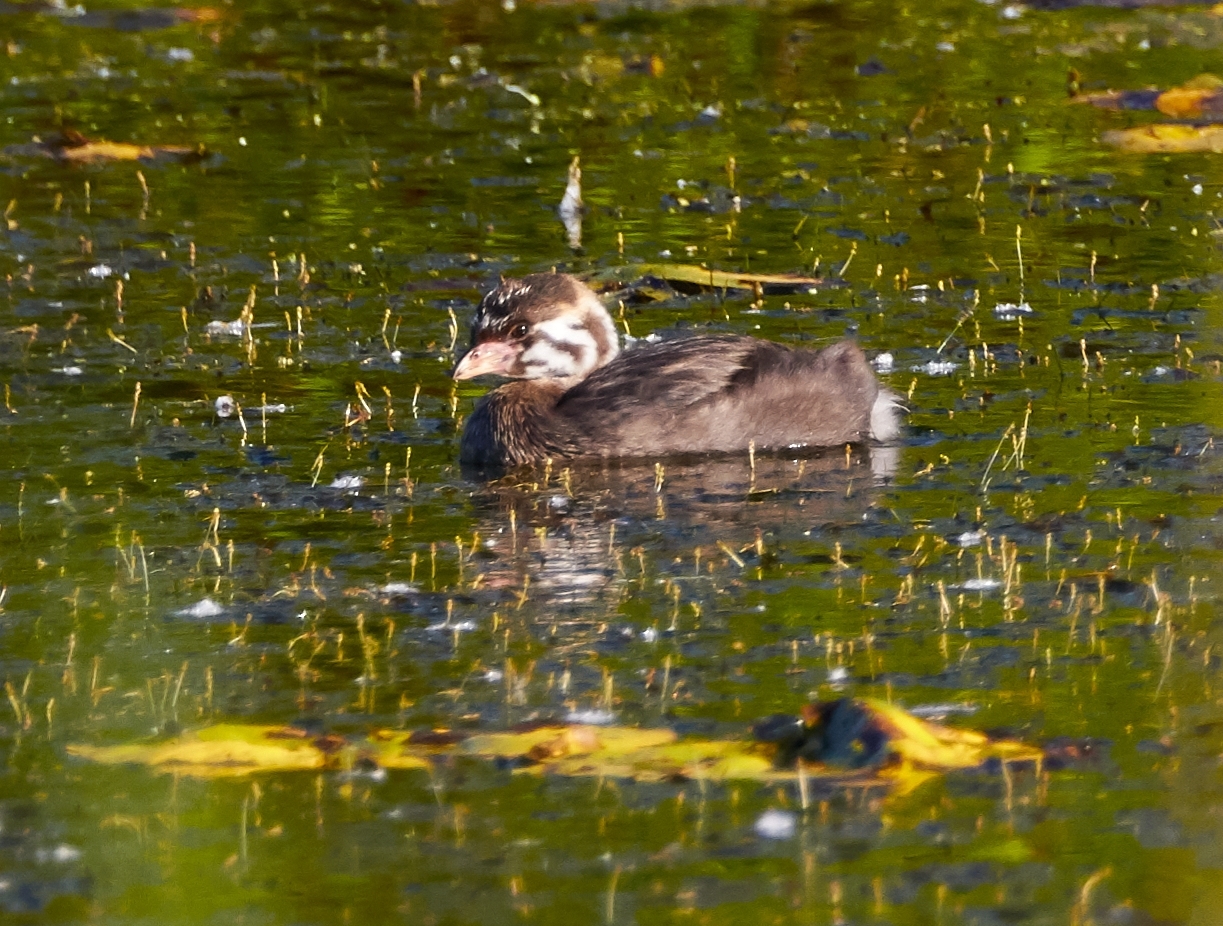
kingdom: Animalia
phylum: Chordata
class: Aves
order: Podicipediformes
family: Podicipedidae
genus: Podilymbus
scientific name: Podilymbus podiceps
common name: Pied-billed grebe
